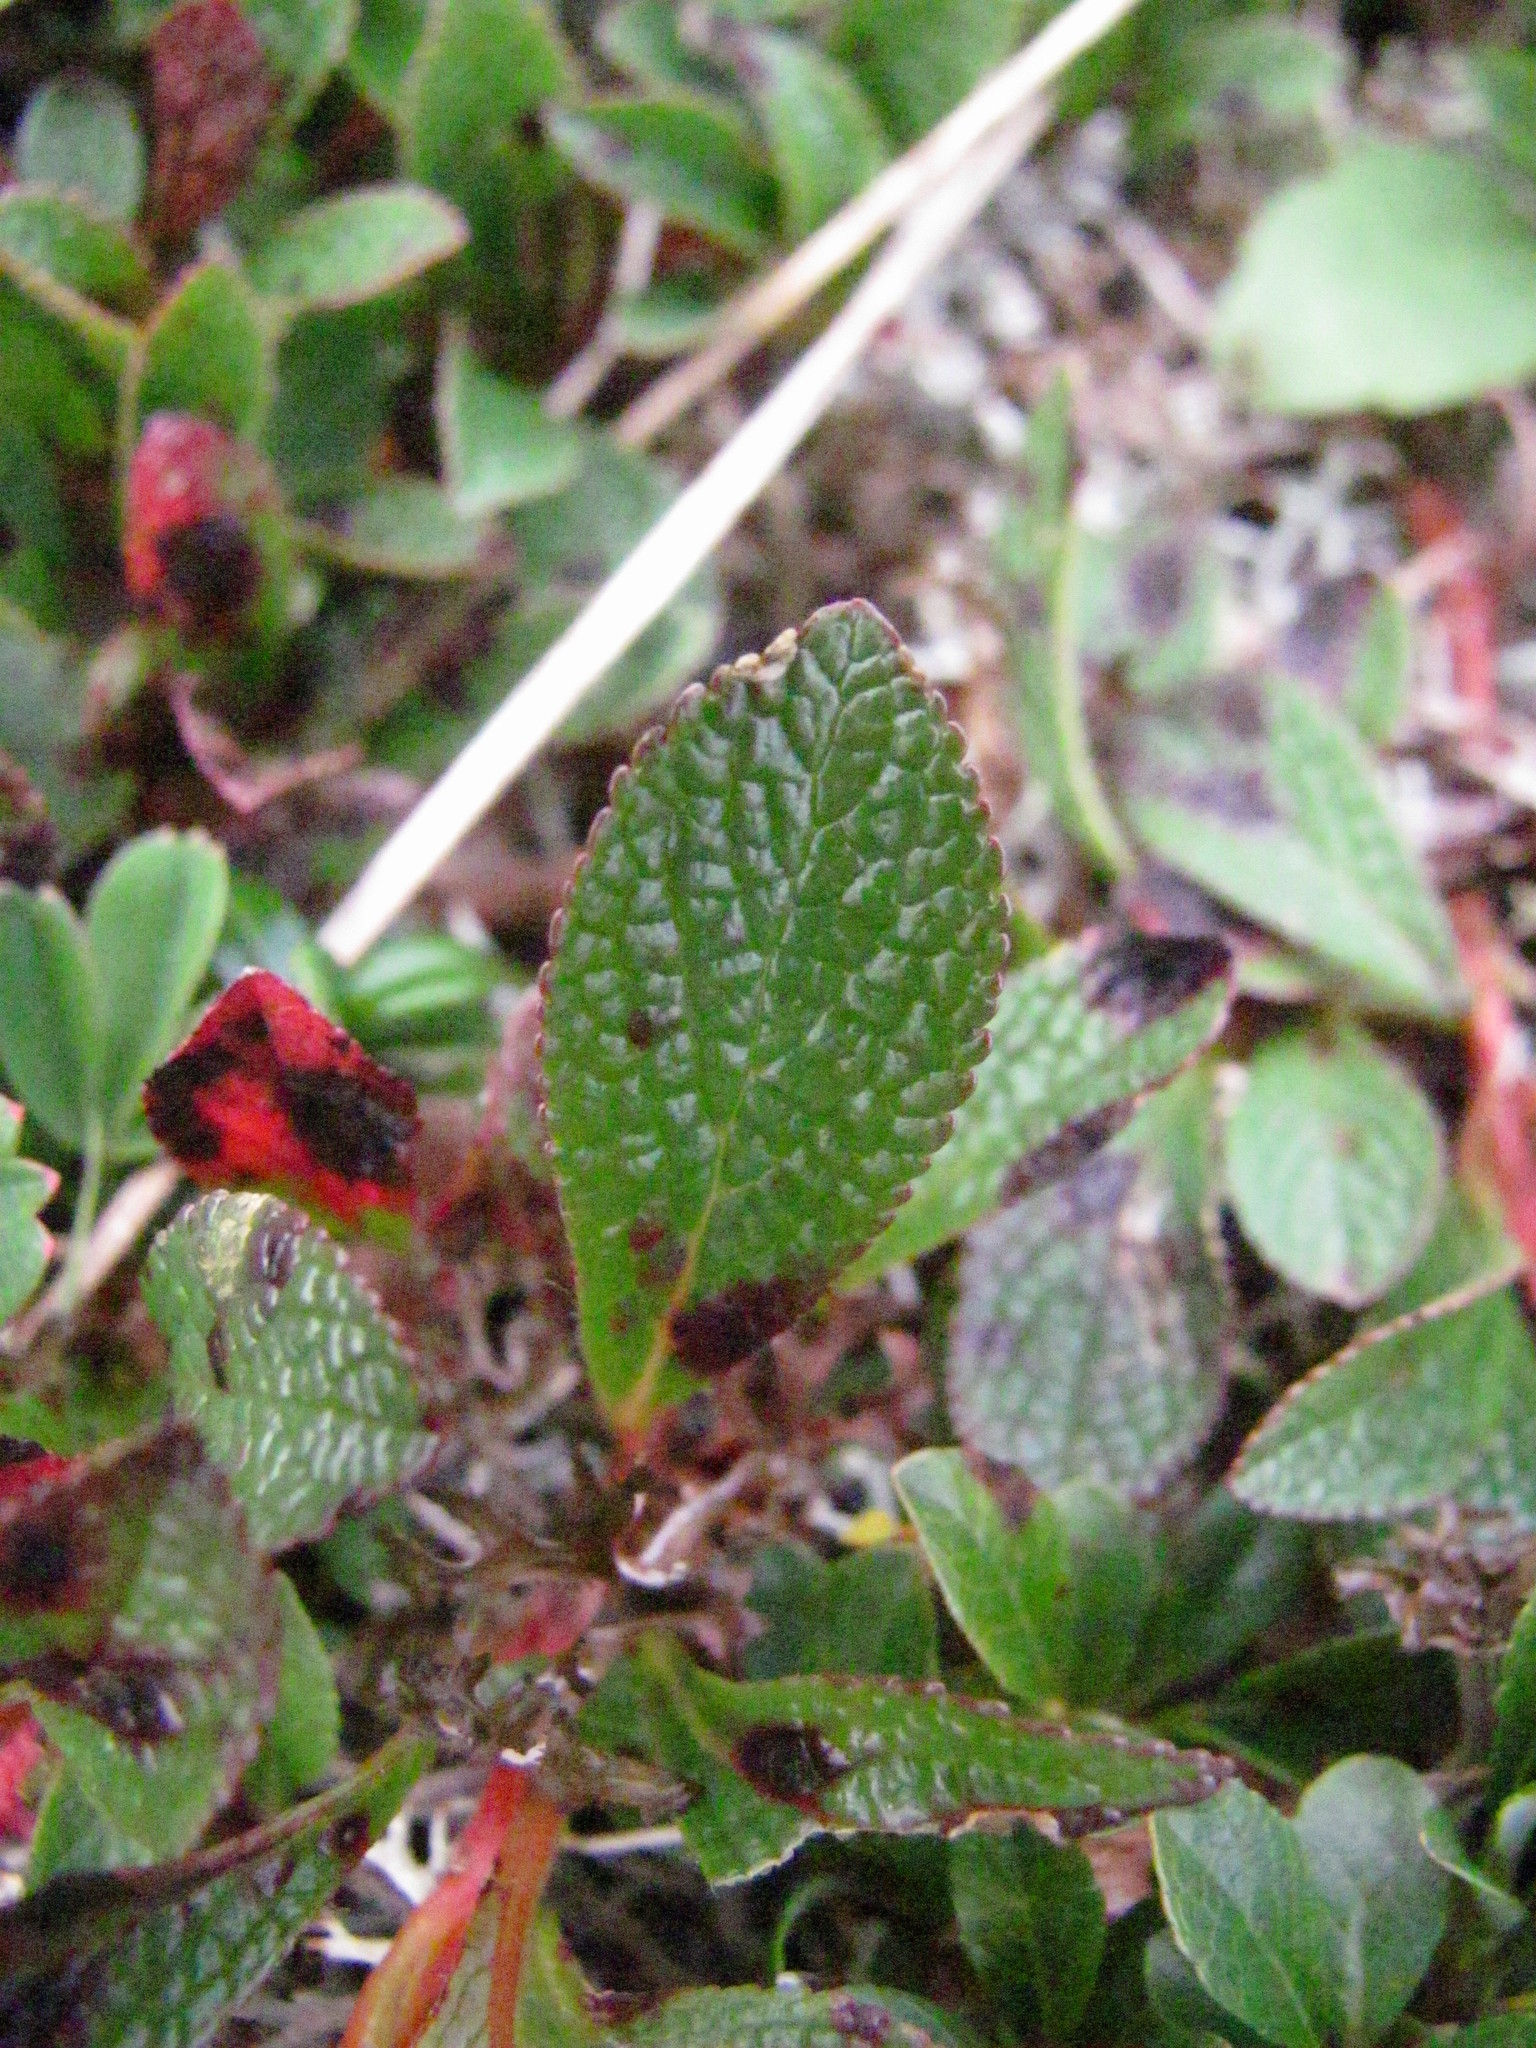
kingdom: Plantae
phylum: Tracheophyta
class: Magnoliopsida
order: Ericales
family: Ericaceae
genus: Arctostaphylos
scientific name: Arctostaphylos alpinus
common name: Alpine bearberry
